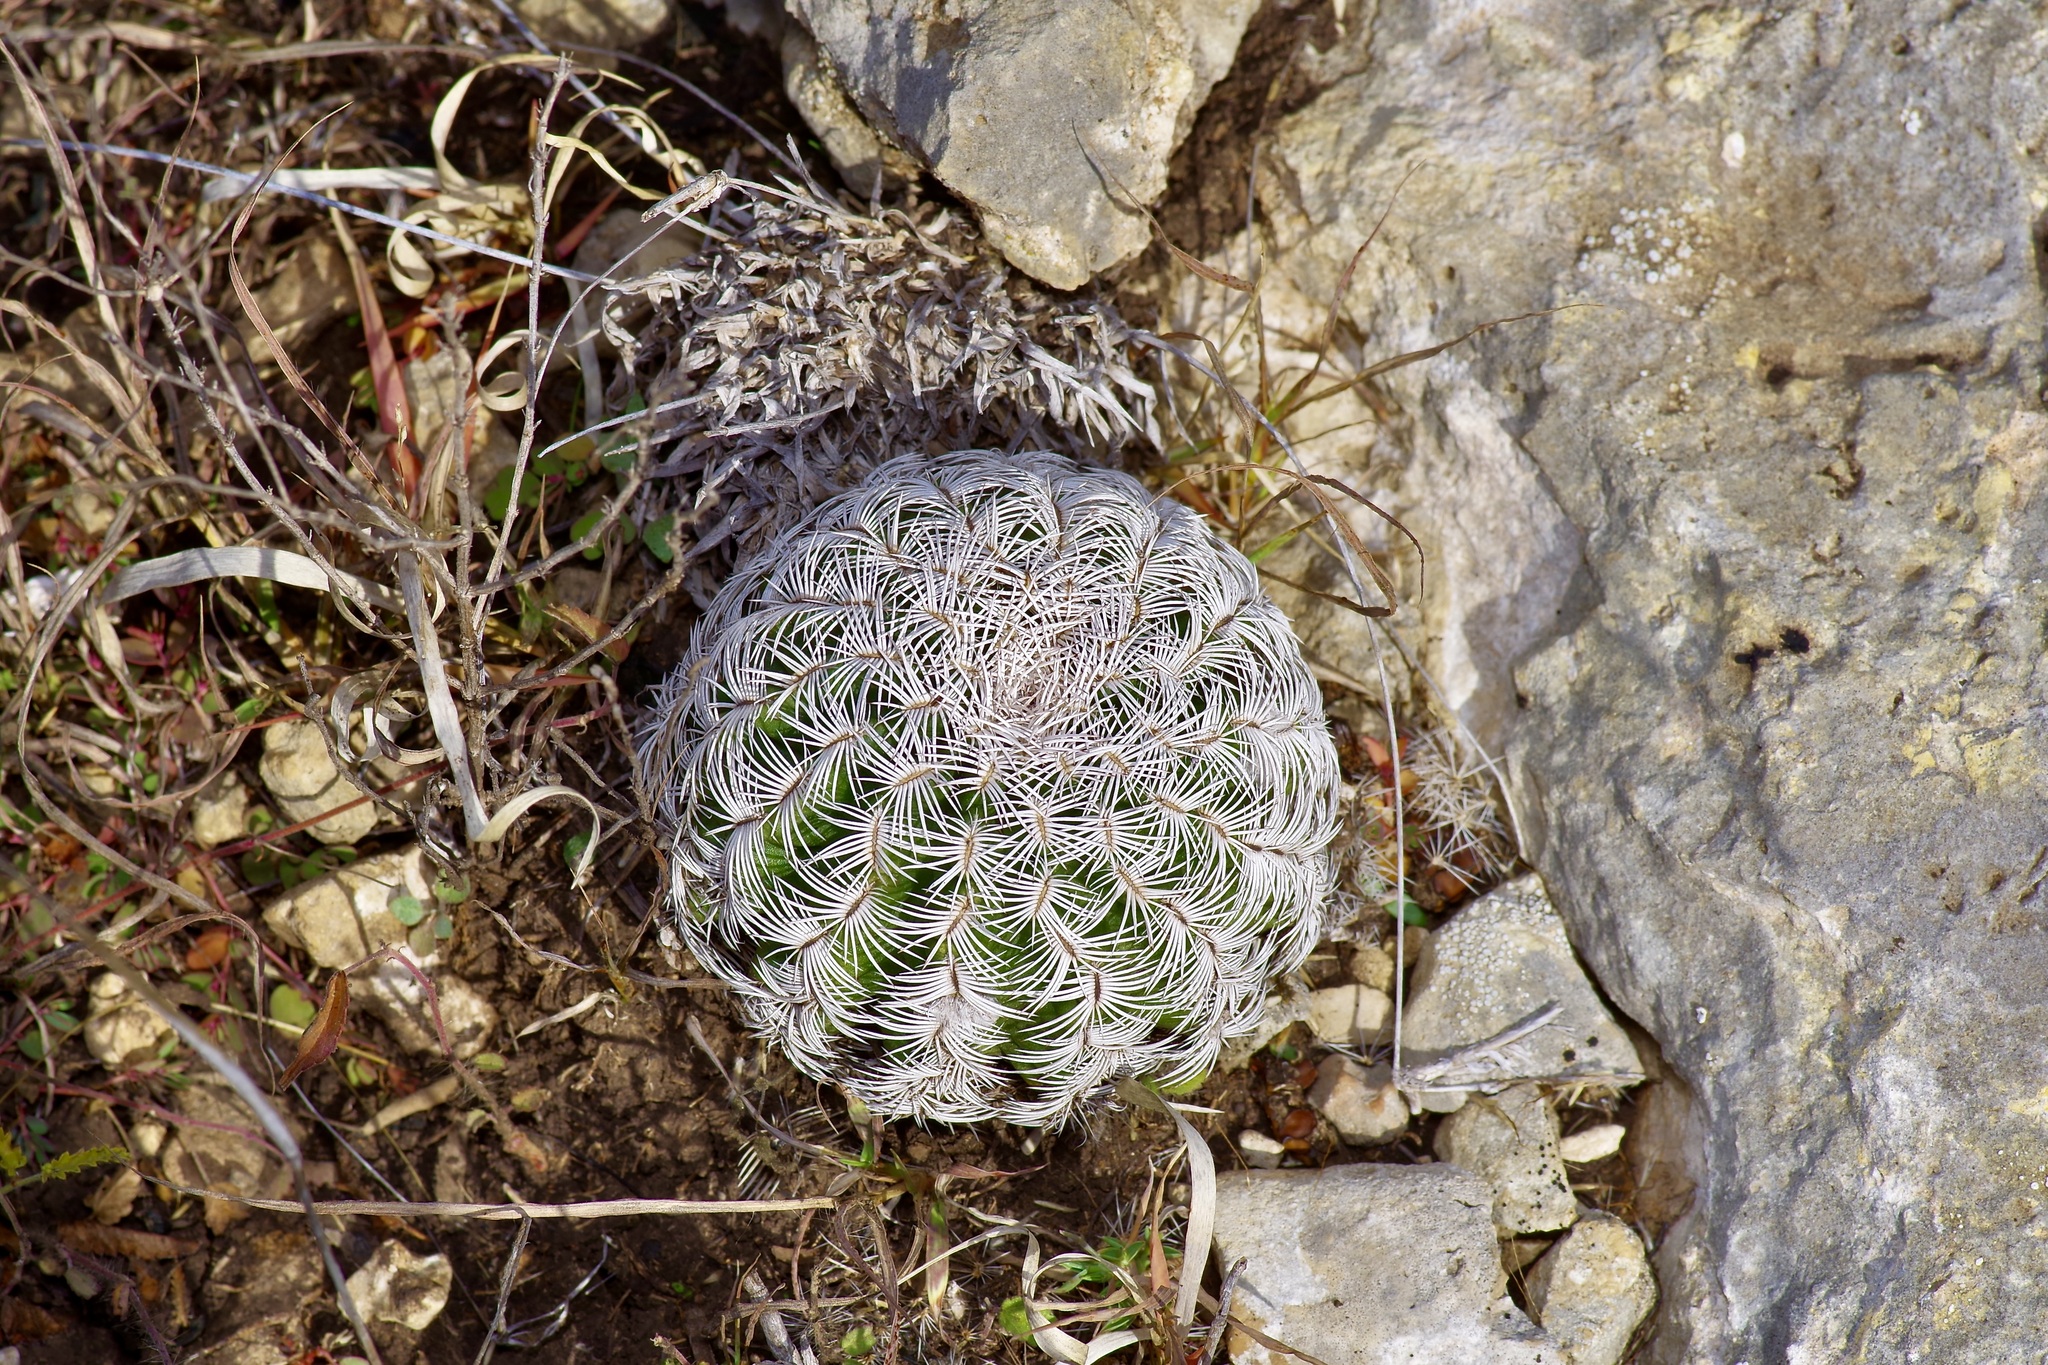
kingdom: Plantae
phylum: Tracheophyta
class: Magnoliopsida
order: Caryophyllales
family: Cactaceae
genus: Echinocereus
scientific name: Echinocereus reichenbachii
